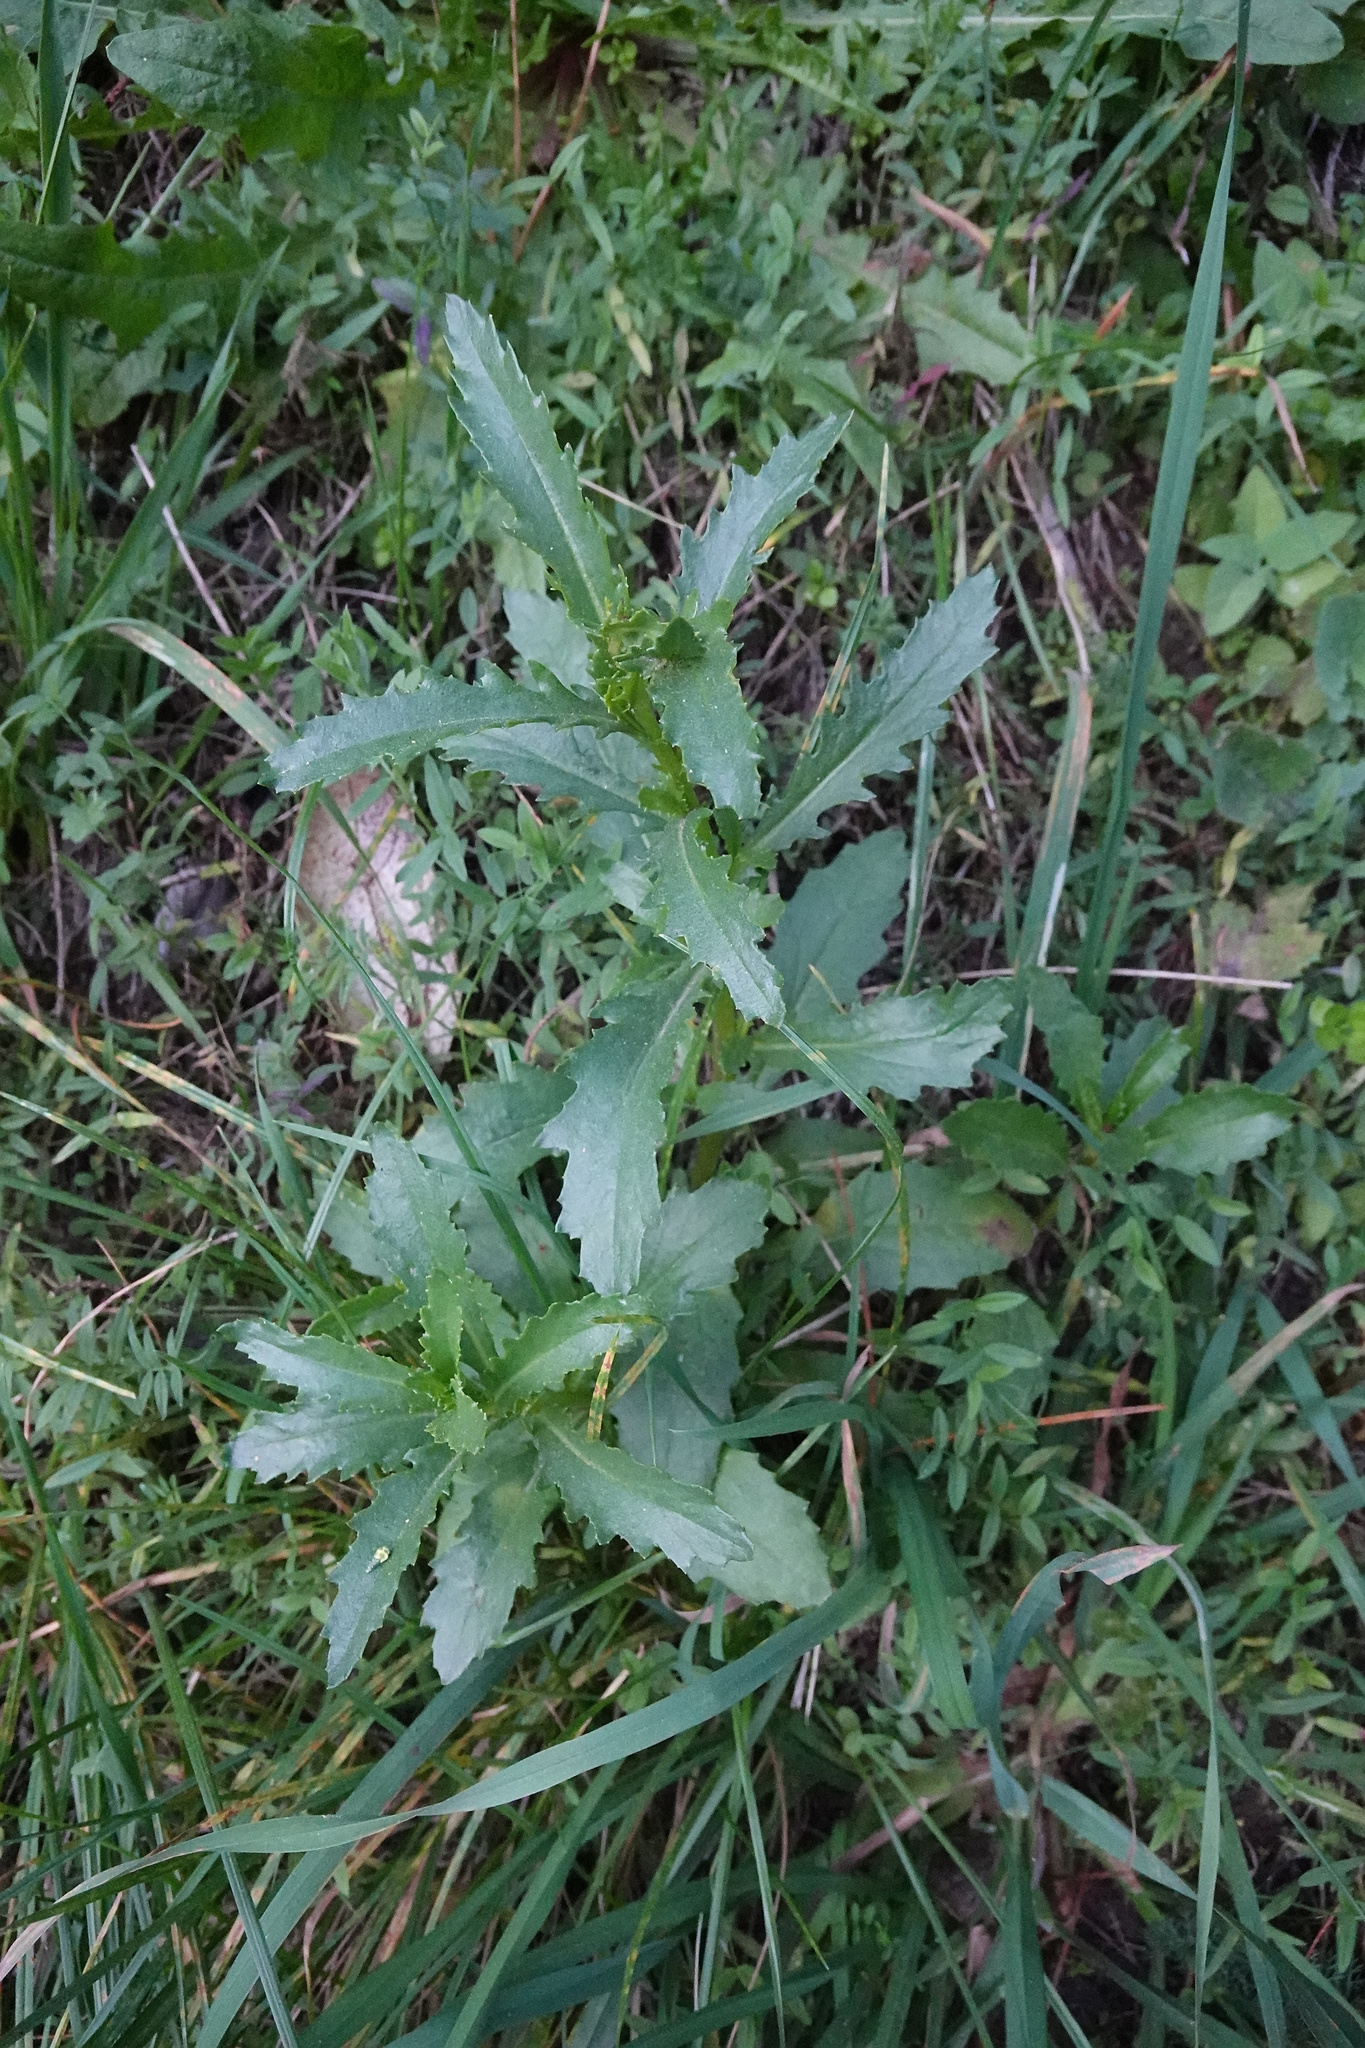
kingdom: Plantae
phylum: Tracheophyta
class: Magnoliopsida
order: Asterales
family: Asteraceae
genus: Senecio
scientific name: Senecio matatini
